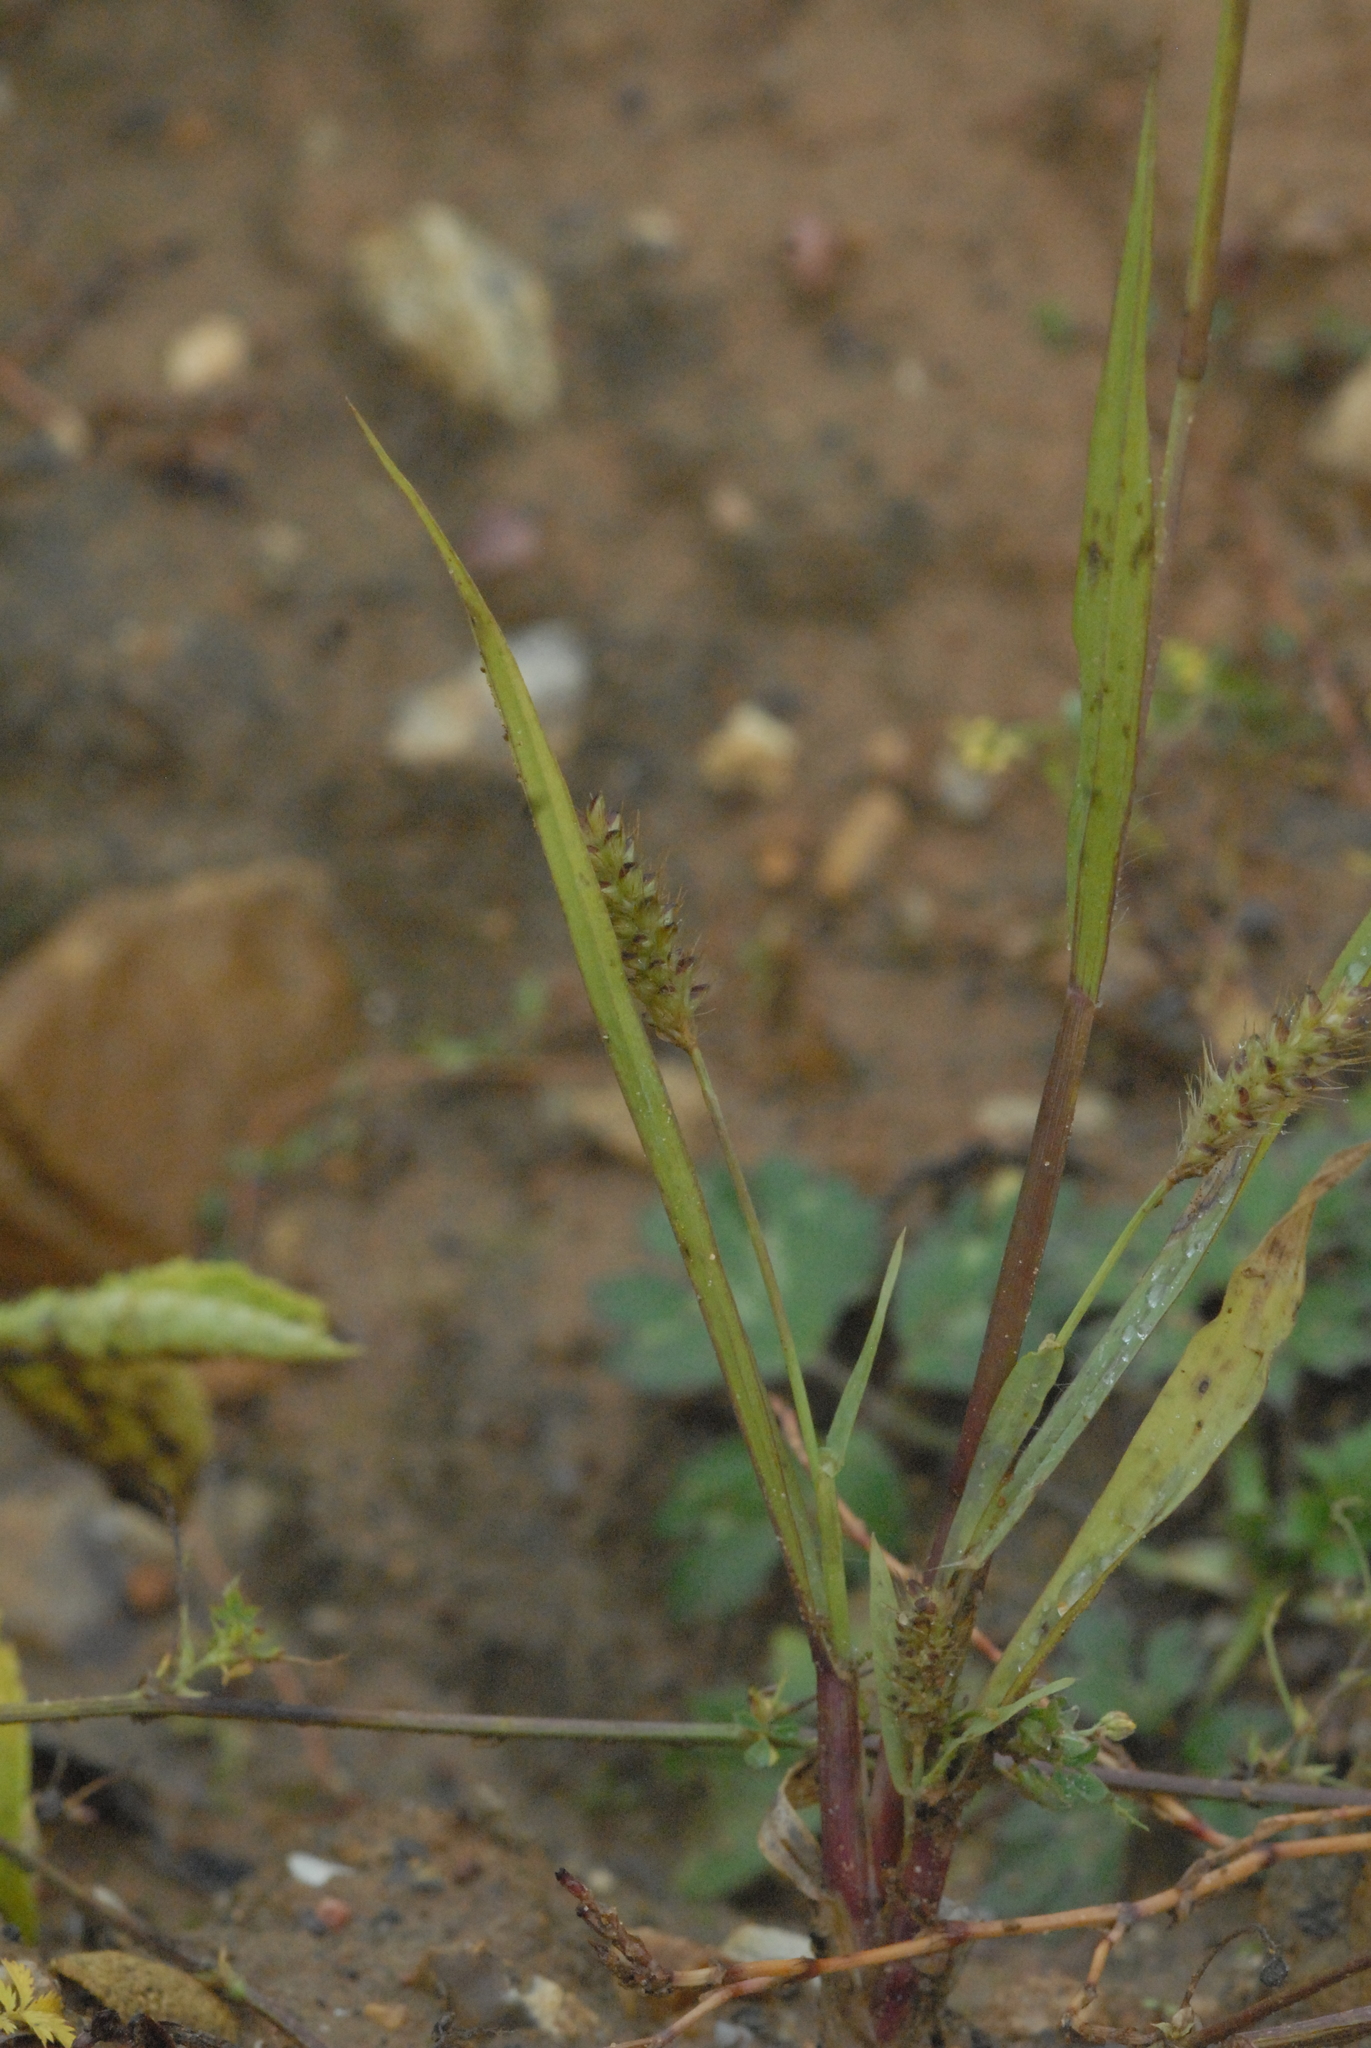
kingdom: Plantae
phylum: Tracheophyta
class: Liliopsida
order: Poales
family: Poaceae
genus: Setaria
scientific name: Setaria pumila
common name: Yellow bristle-grass
